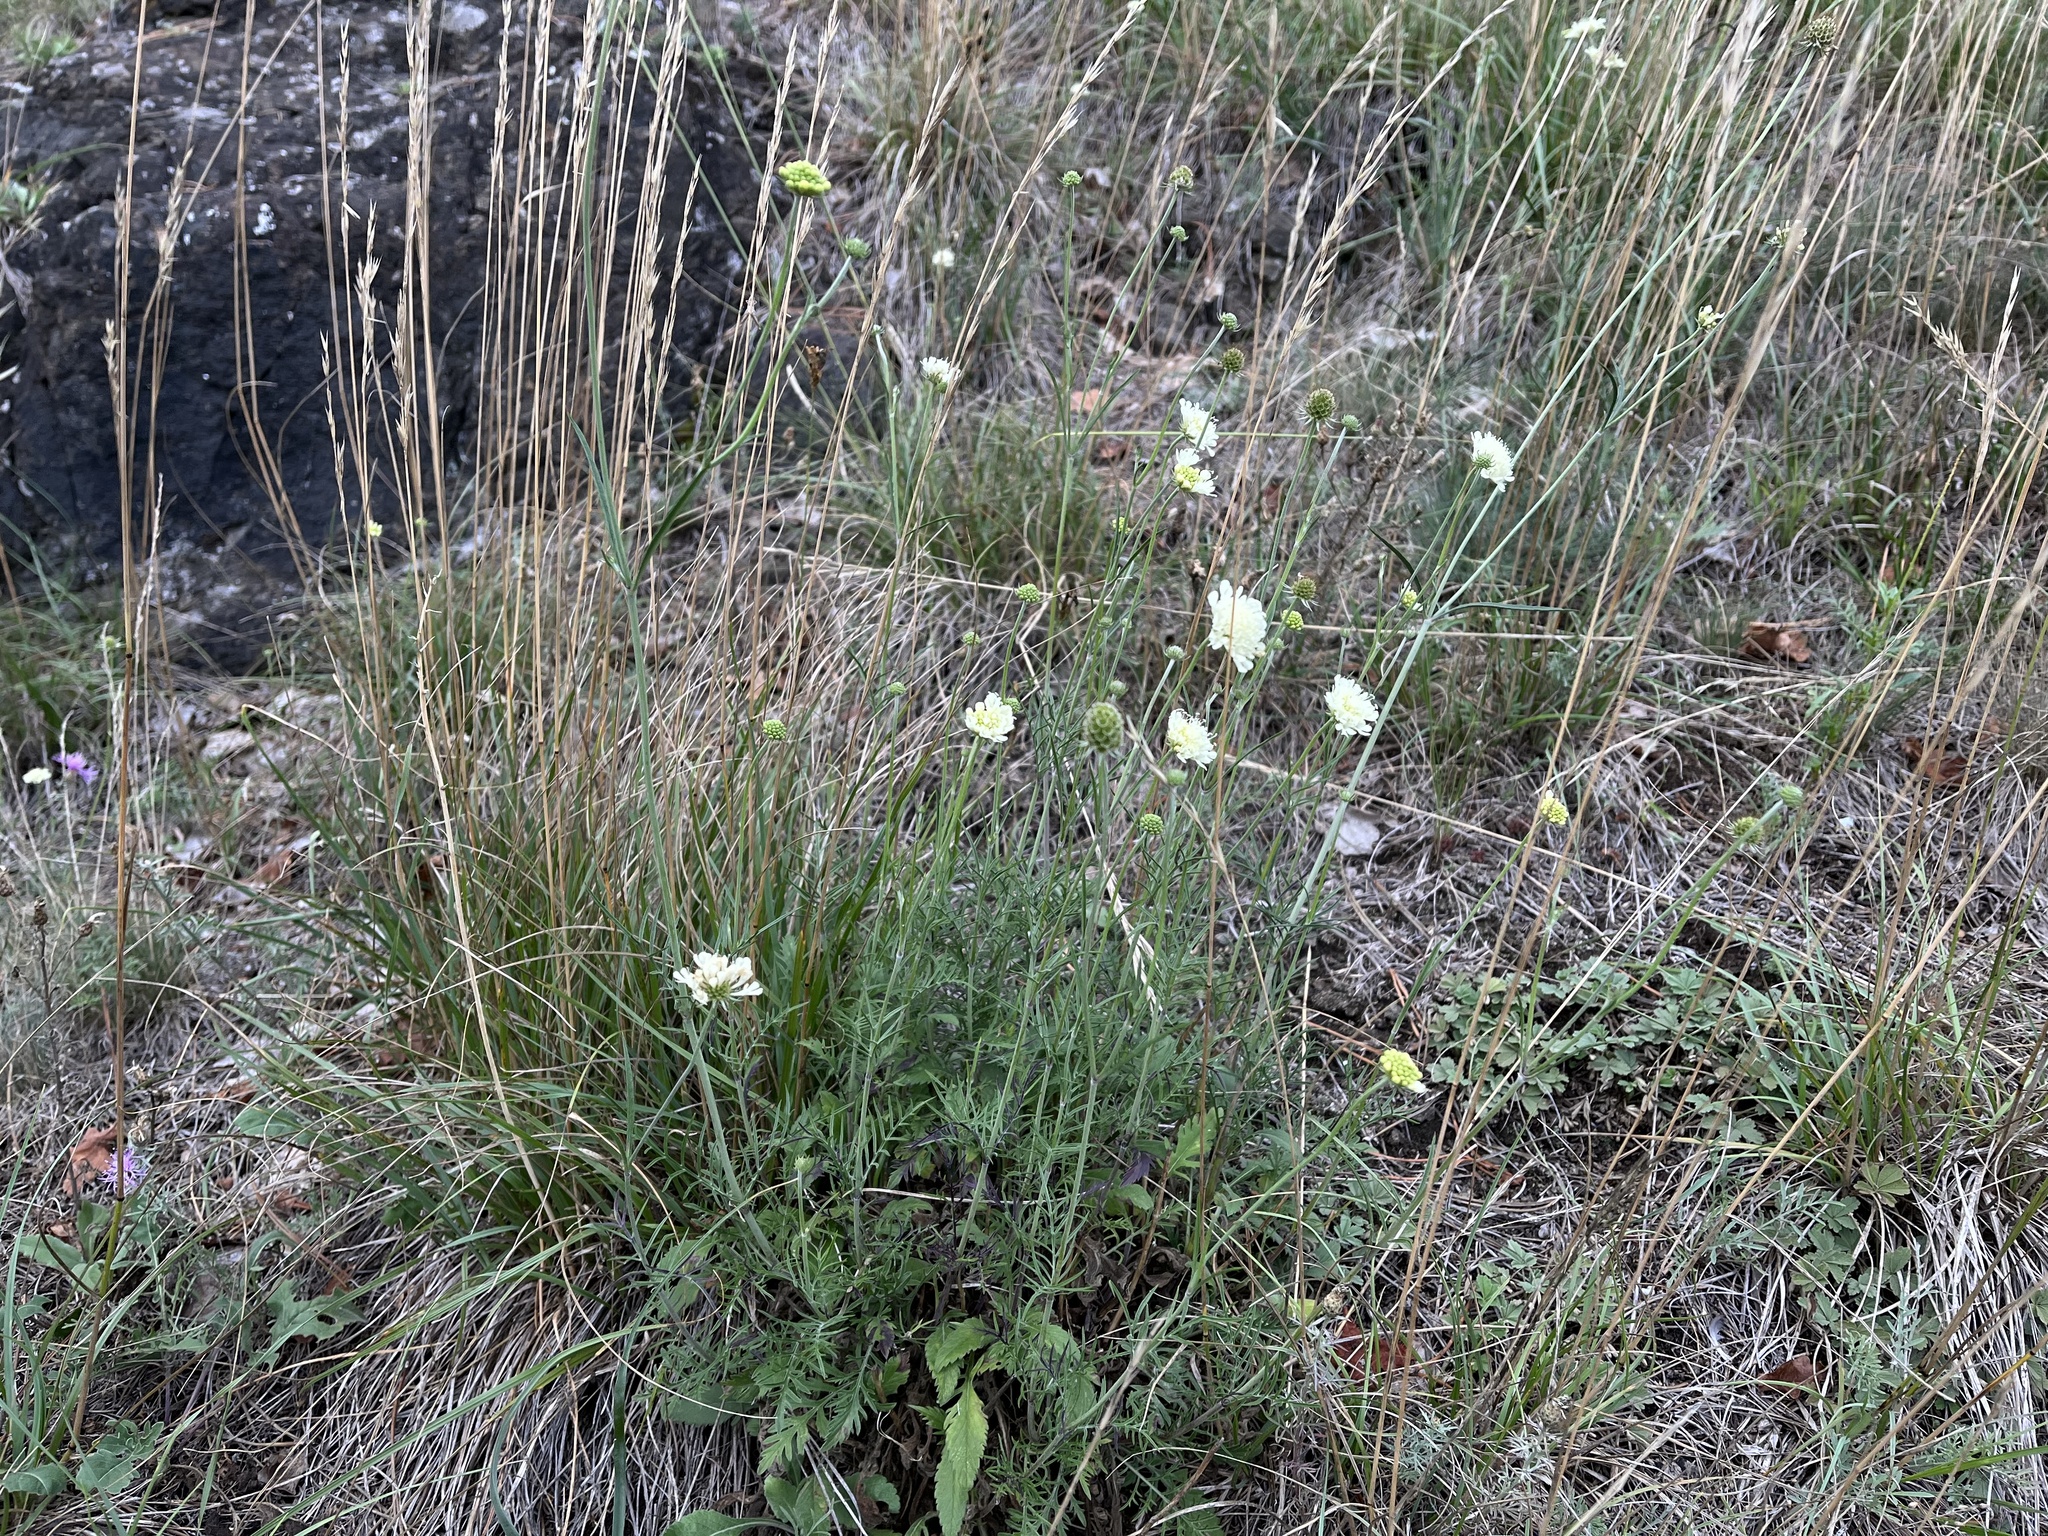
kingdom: Plantae
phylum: Tracheophyta
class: Magnoliopsida
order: Dipsacales
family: Caprifoliaceae
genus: Scabiosa
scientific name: Scabiosa ochroleuca
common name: Cream pincushions
